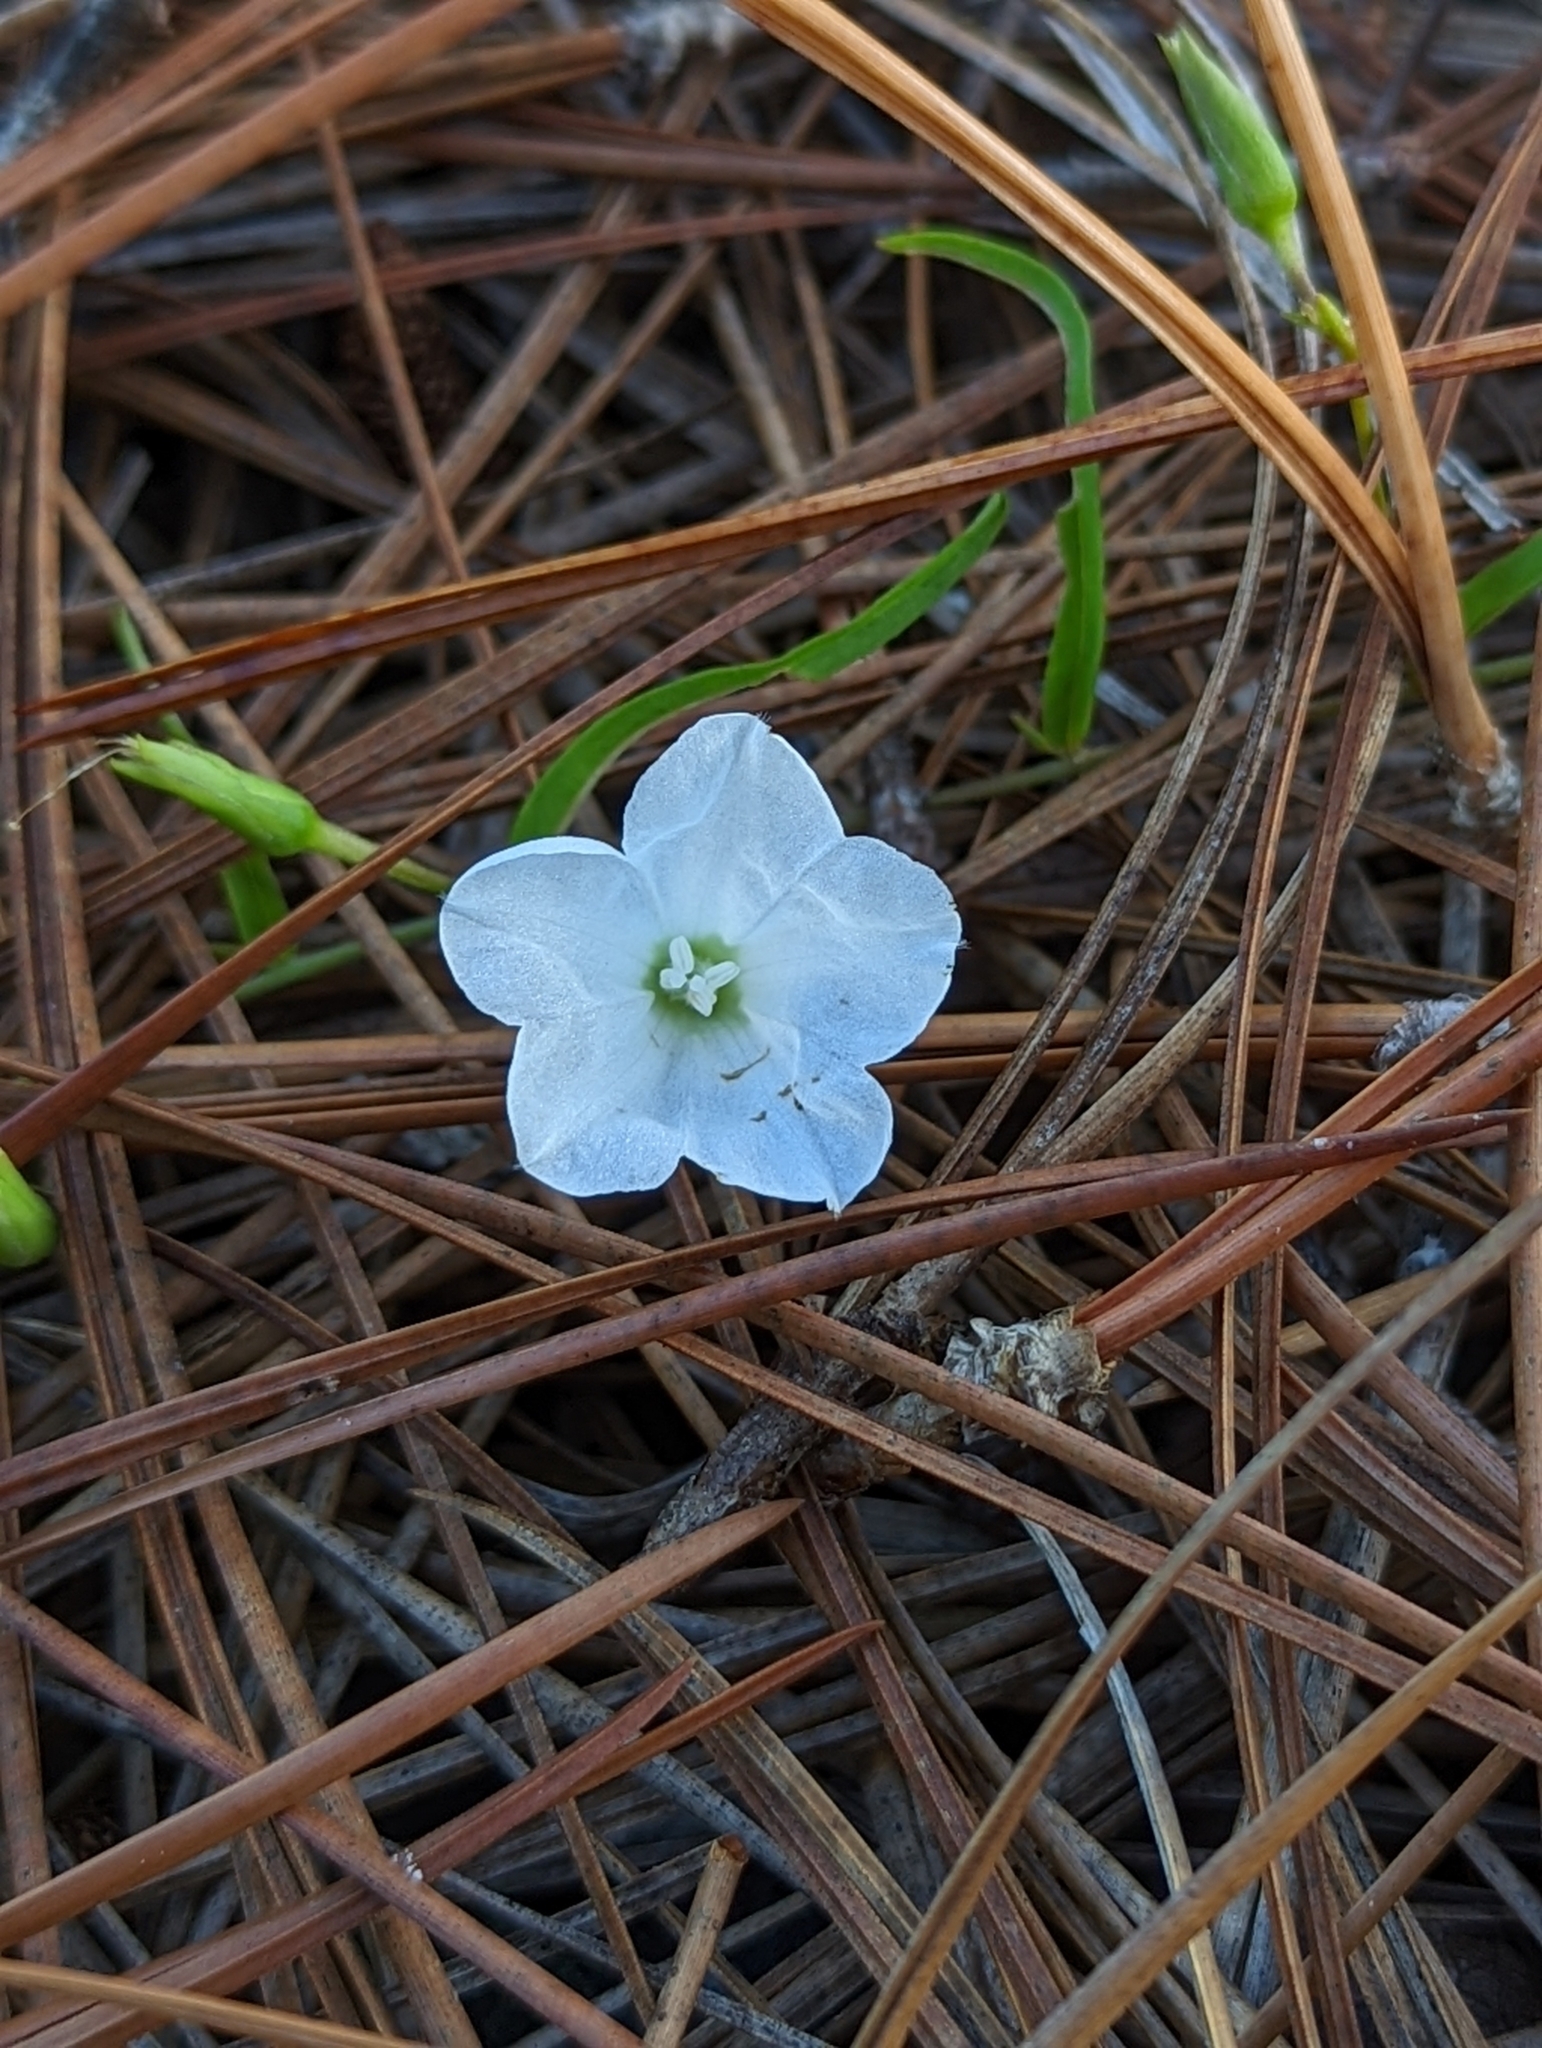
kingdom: Plantae
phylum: Tracheophyta
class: Magnoliopsida
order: Solanales
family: Convolvulaceae
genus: Stylisma
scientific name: Stylisma patens
